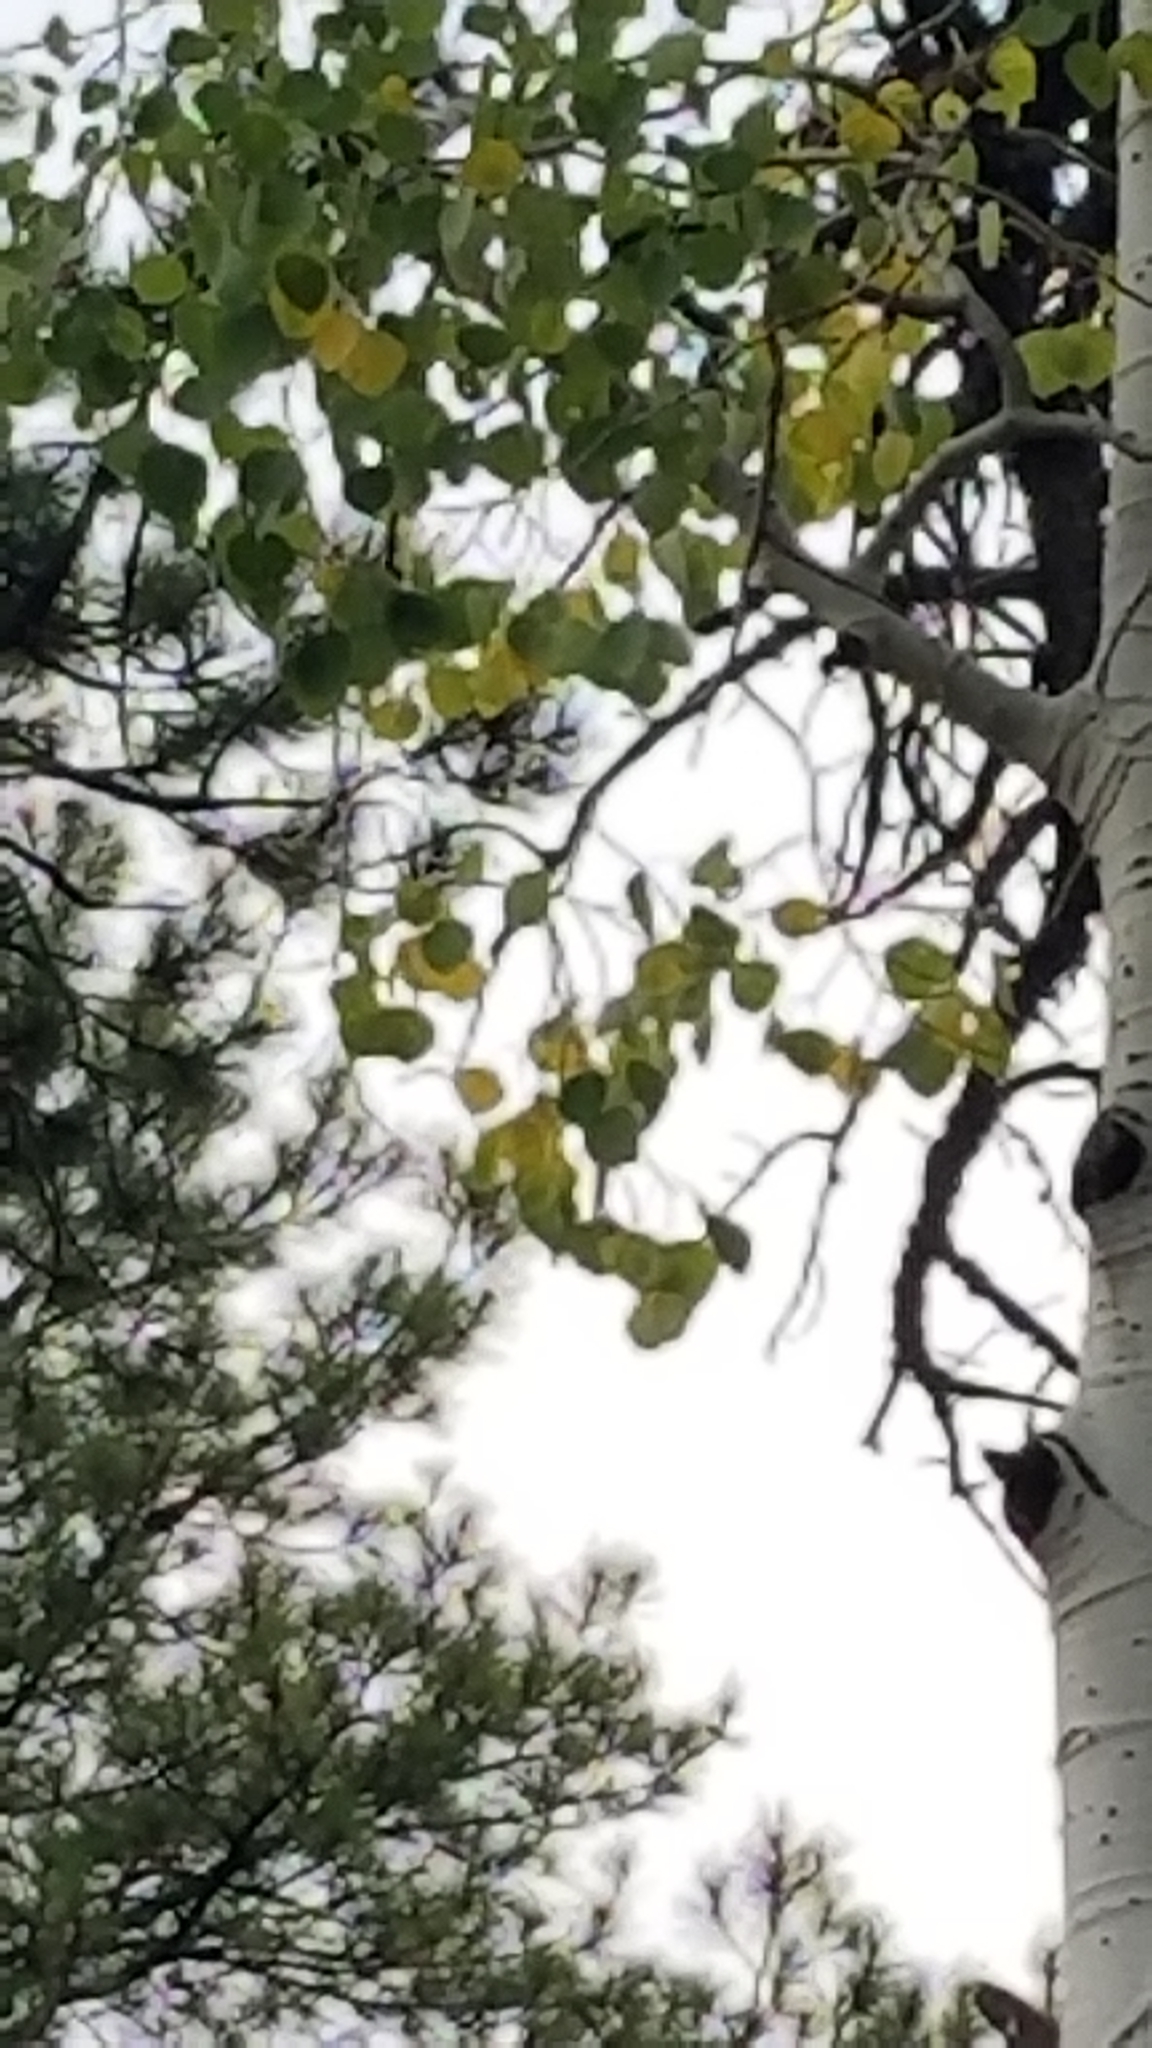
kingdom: Plantae
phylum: Tracheophyta
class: Magnoliopsida
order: Malpighiales
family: Salicaceae
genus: Populus
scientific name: Populus tremuloides
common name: Quaking aspen
